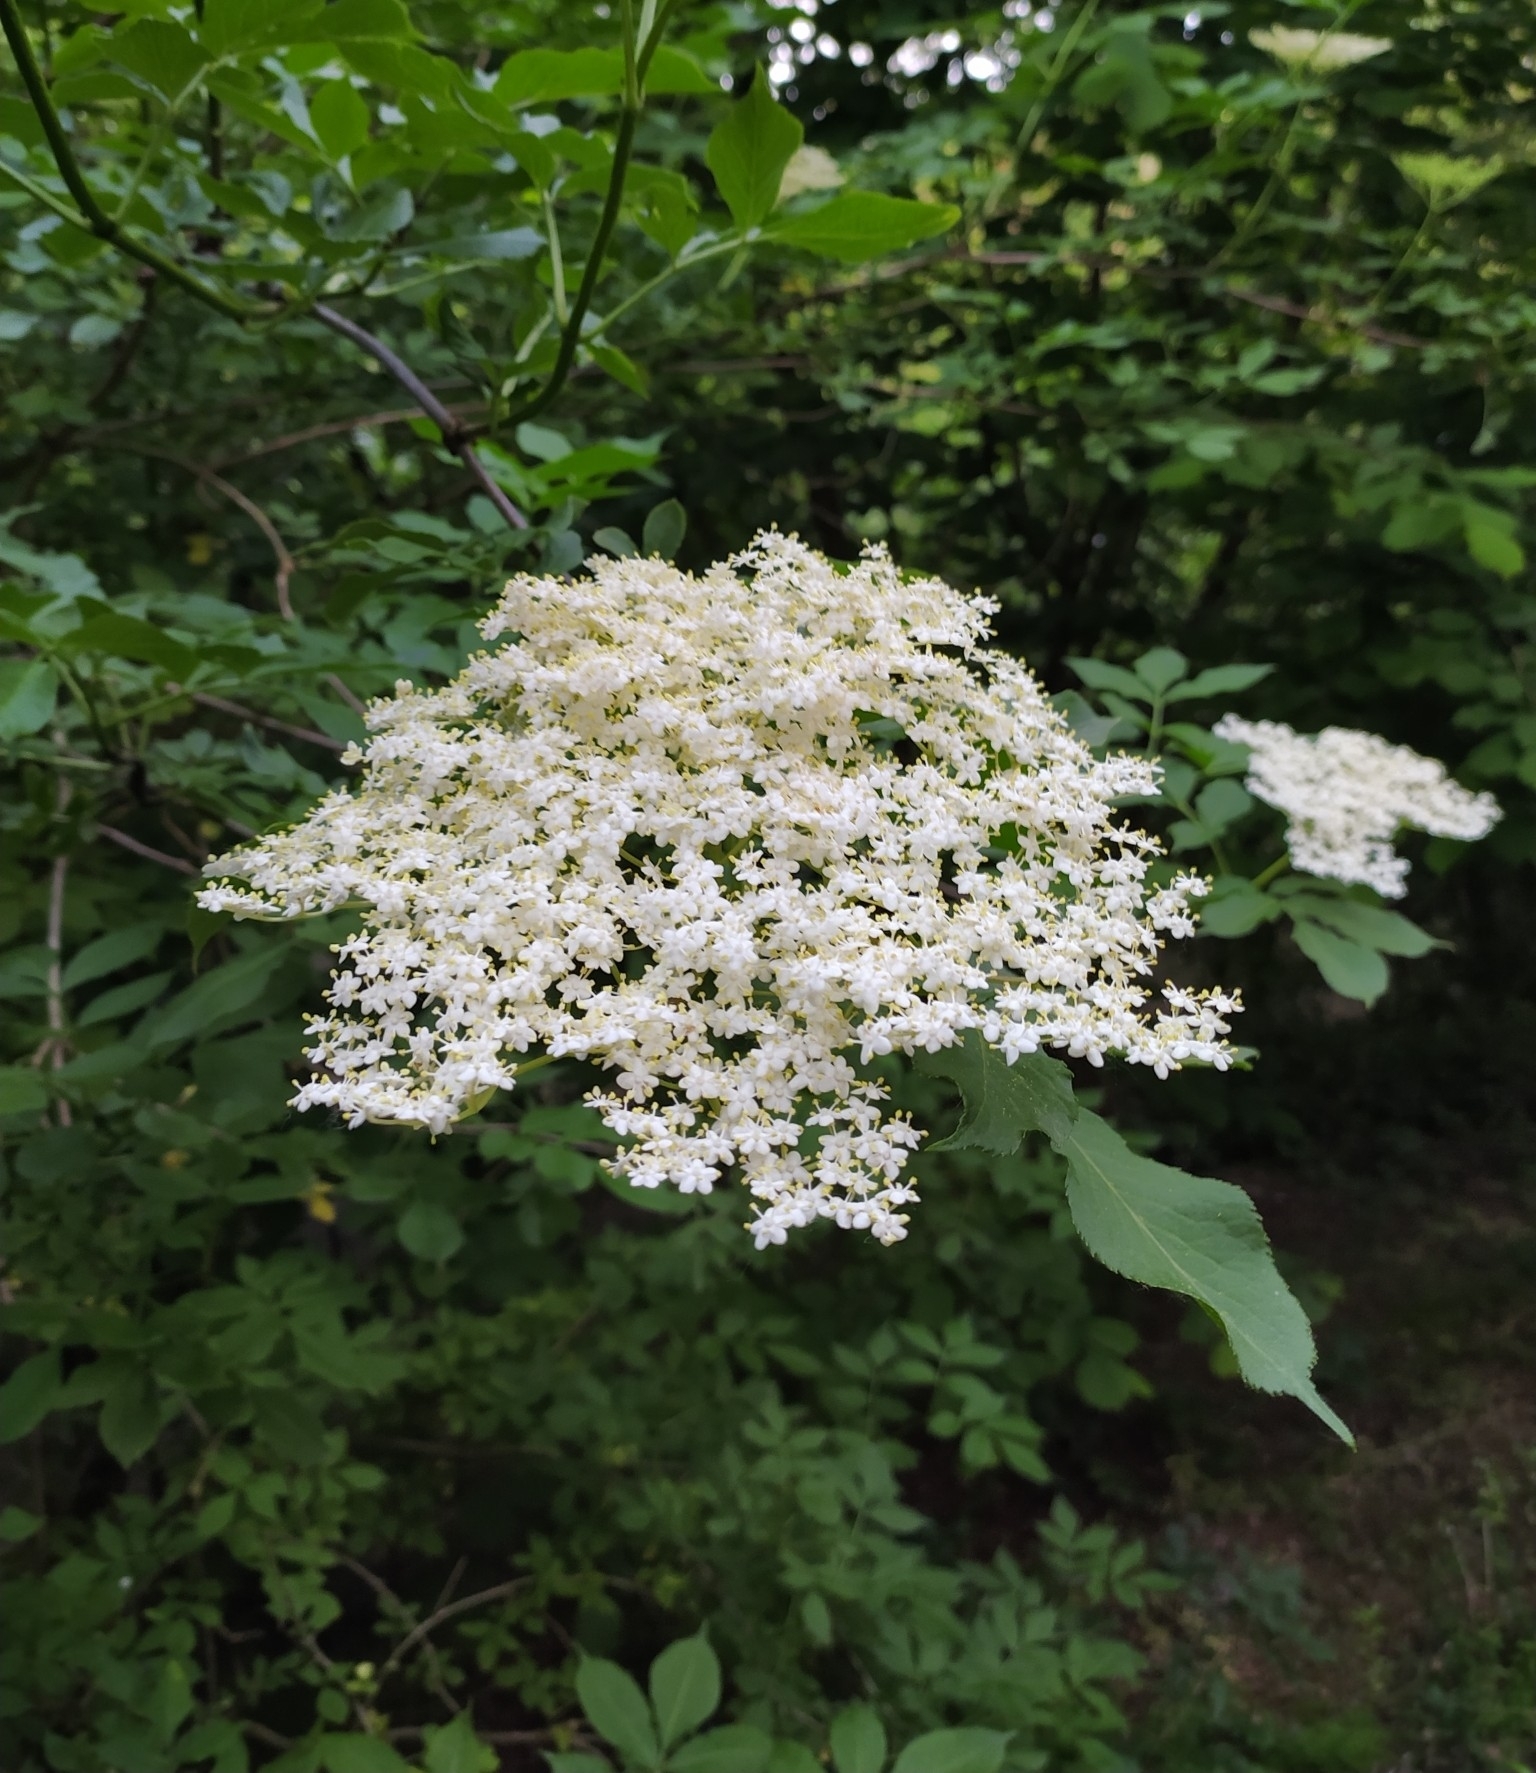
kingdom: Plantae
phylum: Tracheophyta
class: Magnoliopsida
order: Dipsacales
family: Viburnaceae
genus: Sambucus
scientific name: Sambucus nigra
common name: Elder
